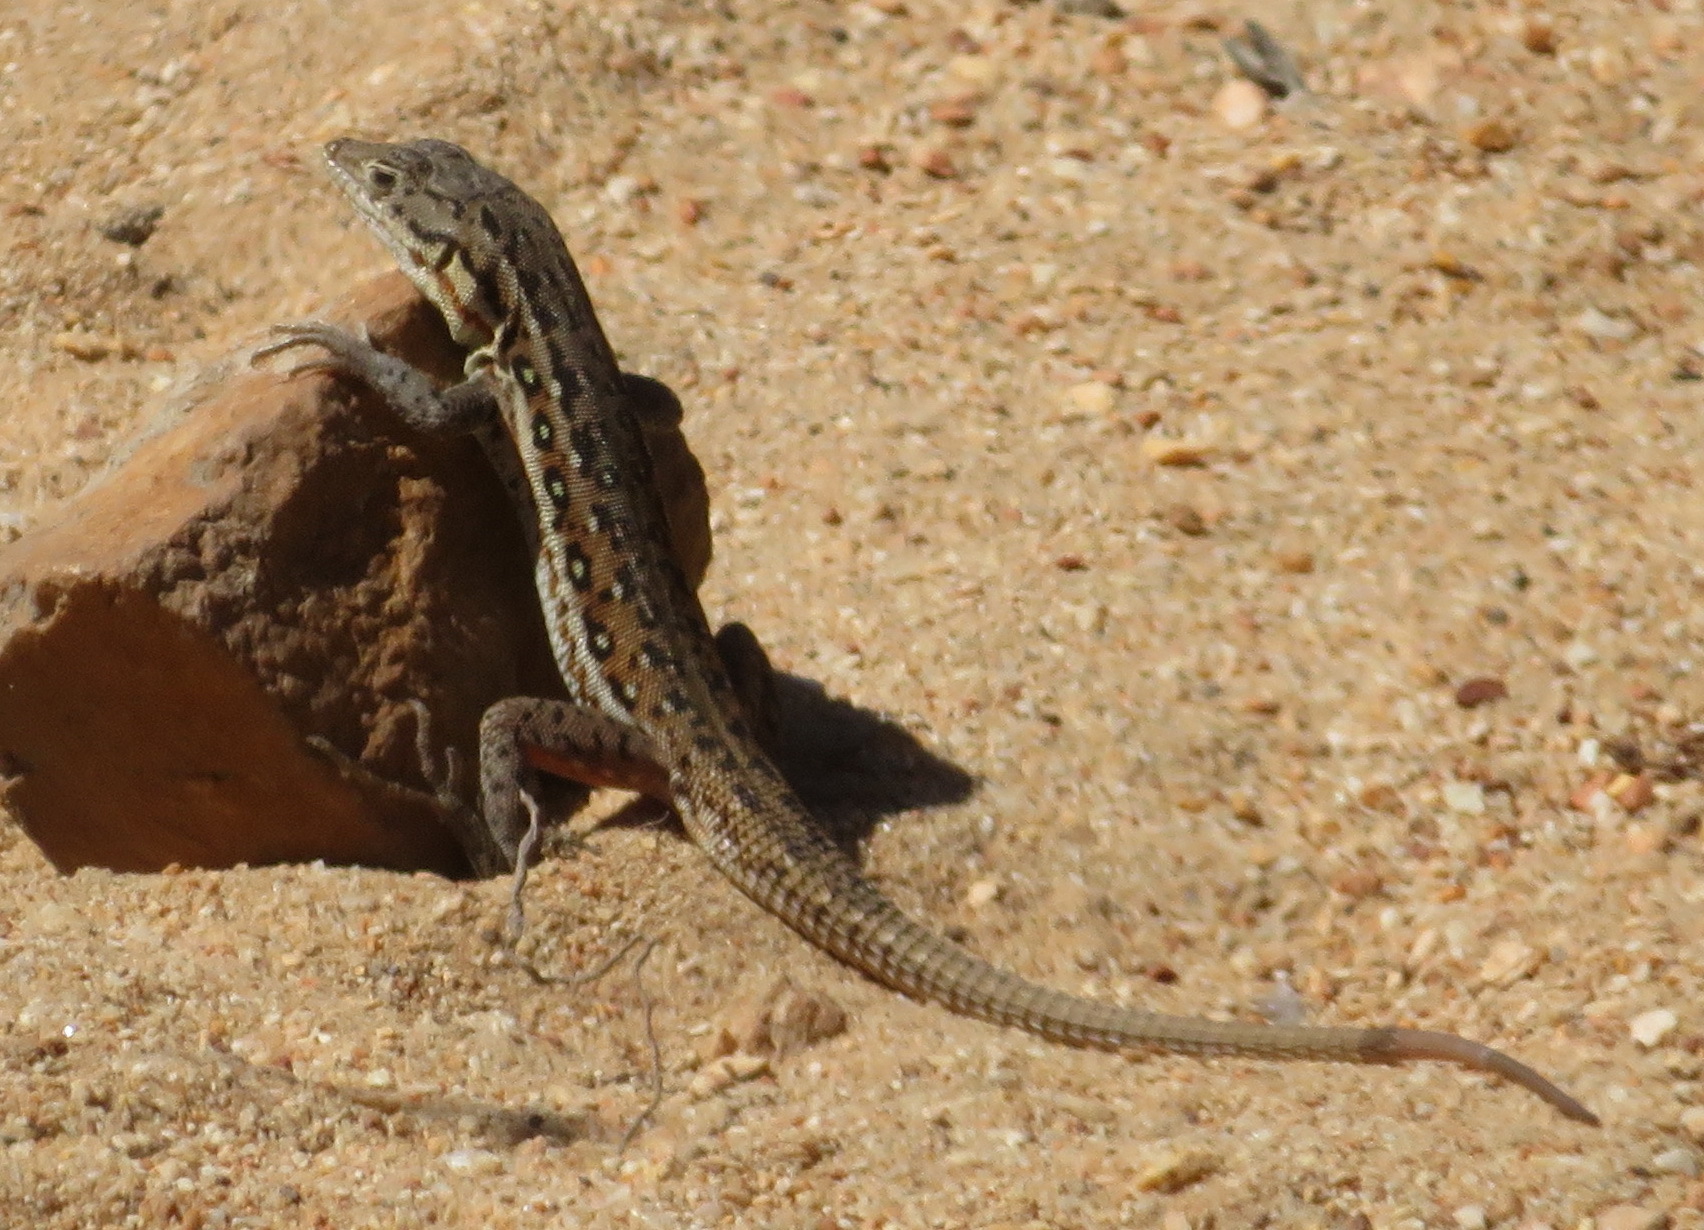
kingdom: Animalia
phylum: Chordata
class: Squamata
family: Lacertidae
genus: Pedioplanis
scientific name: Pedioplanis lineoocellata
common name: Spotted sand lizard
